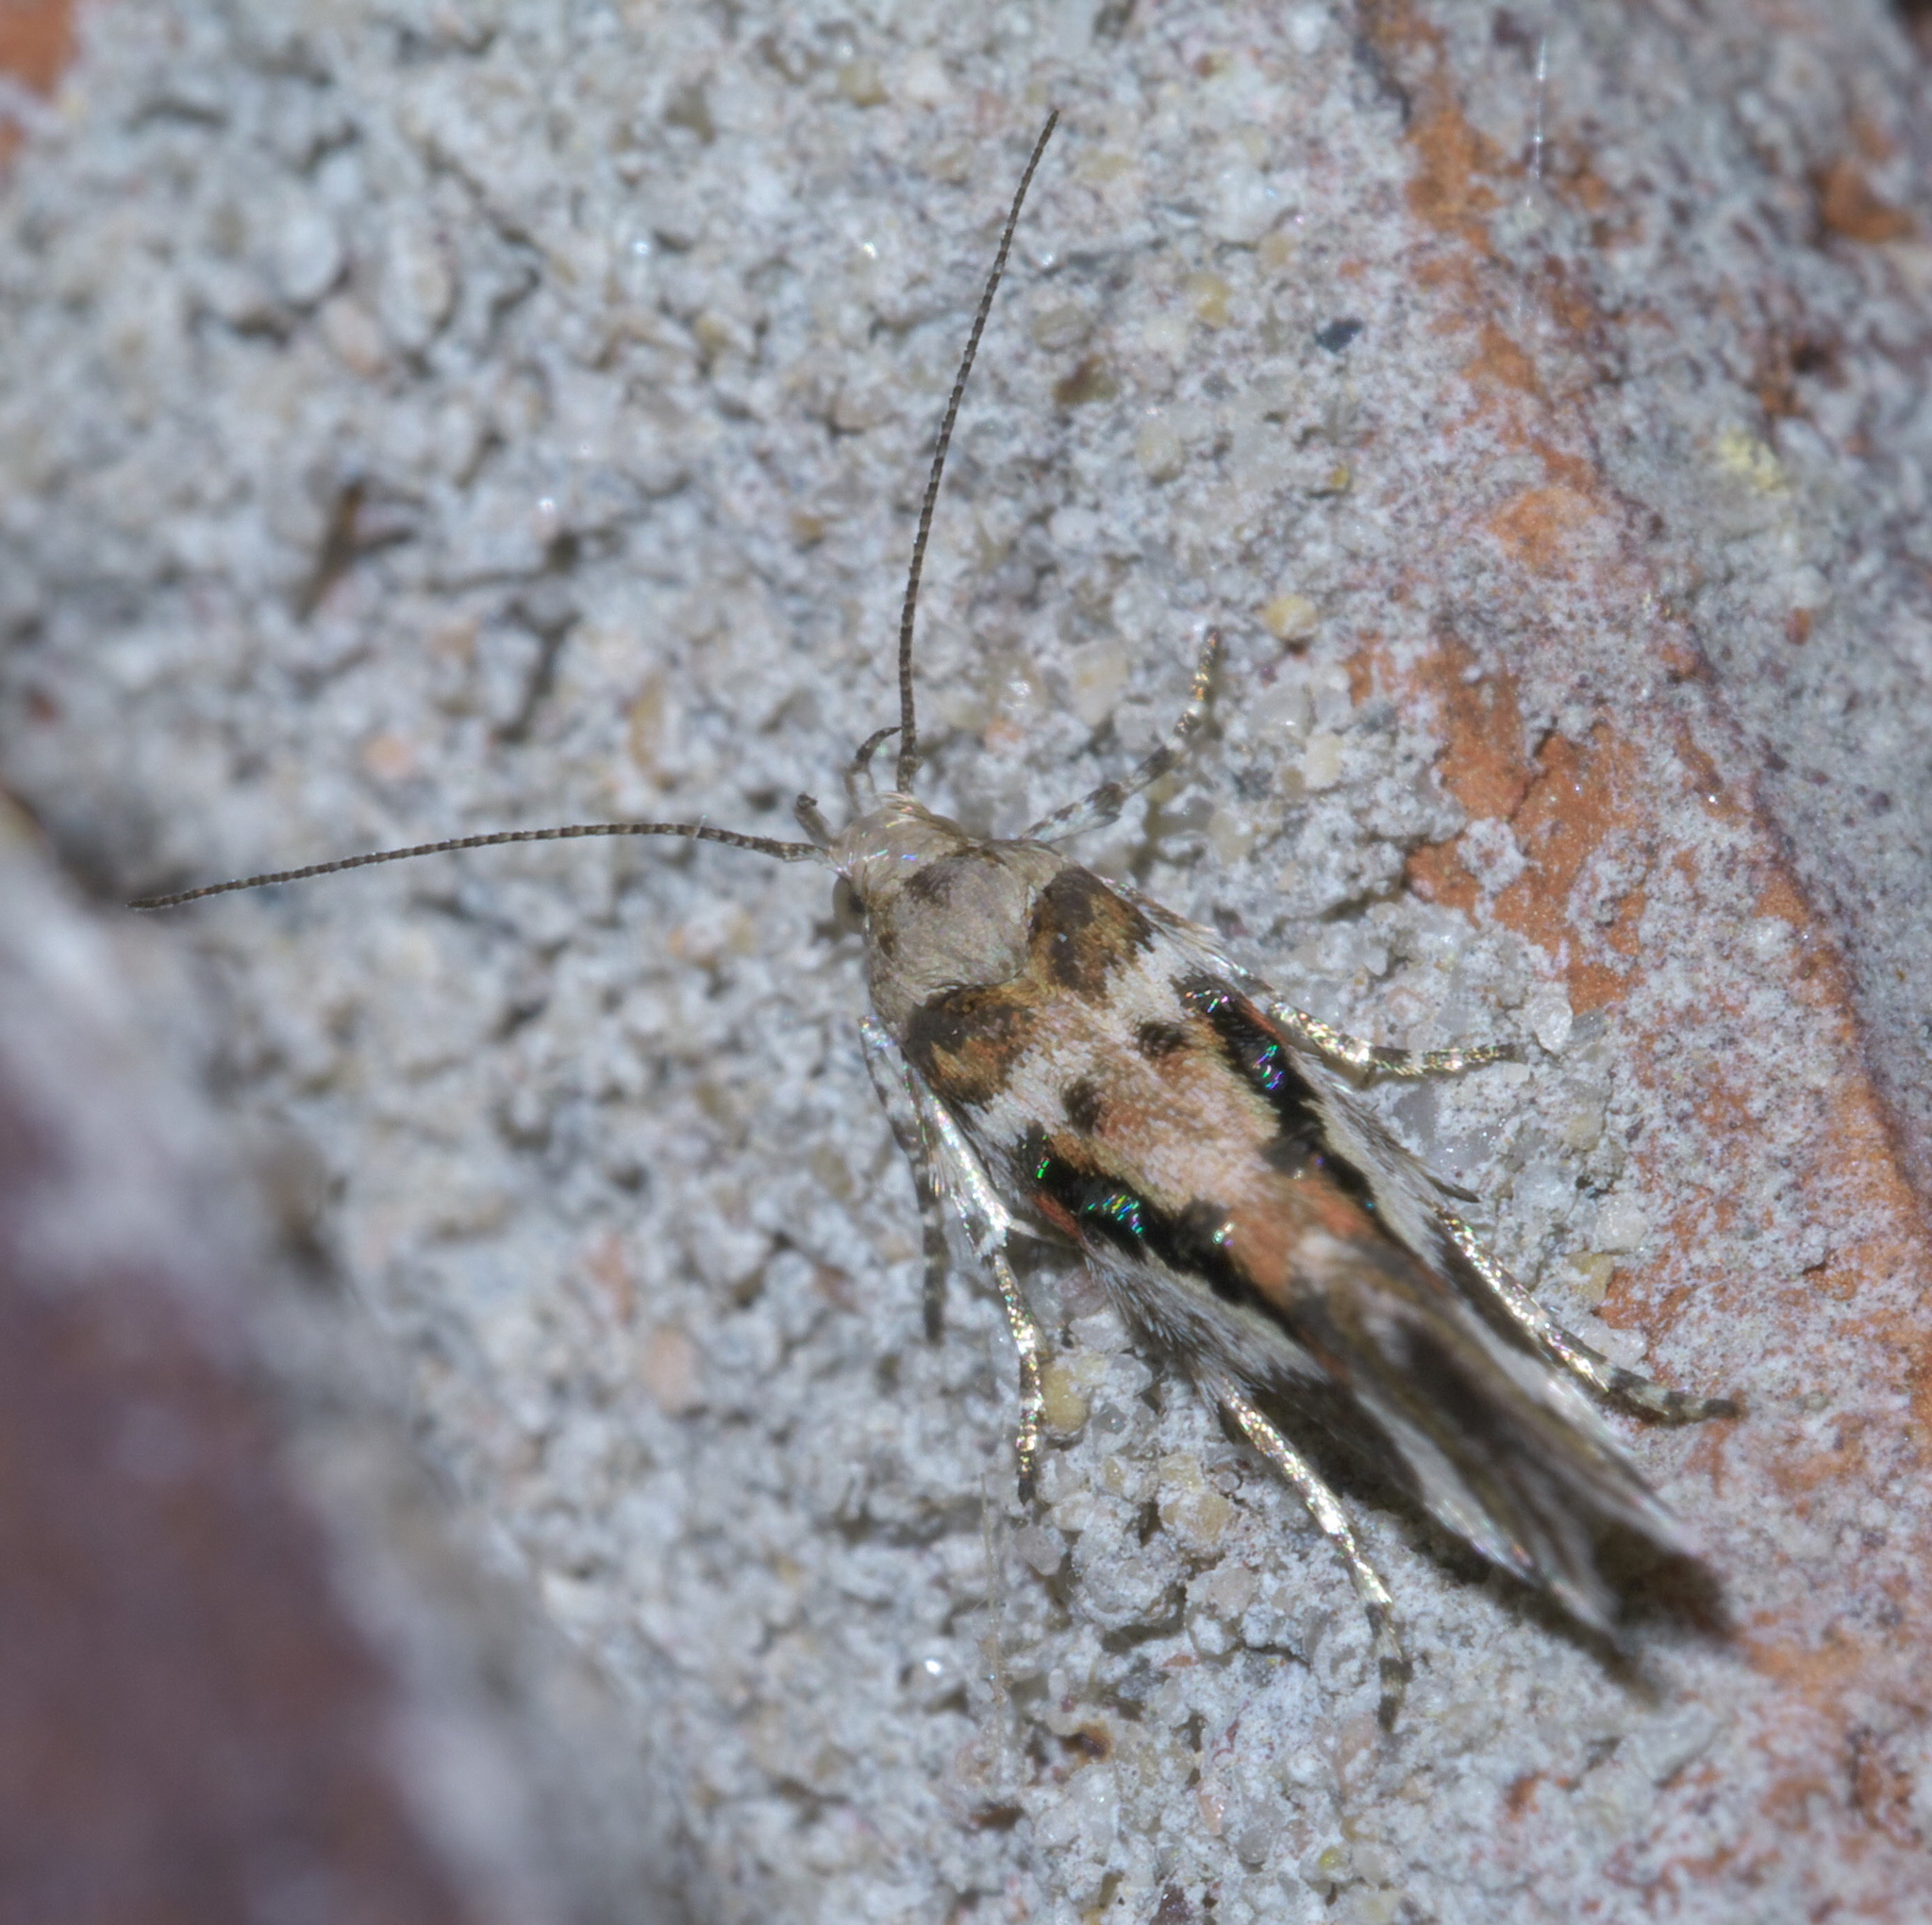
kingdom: Animalia
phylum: Arthropoda
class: Insecta
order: Lepidoptera
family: Gelechiidae
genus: Aristotelia
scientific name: Aristotelia elegantella
